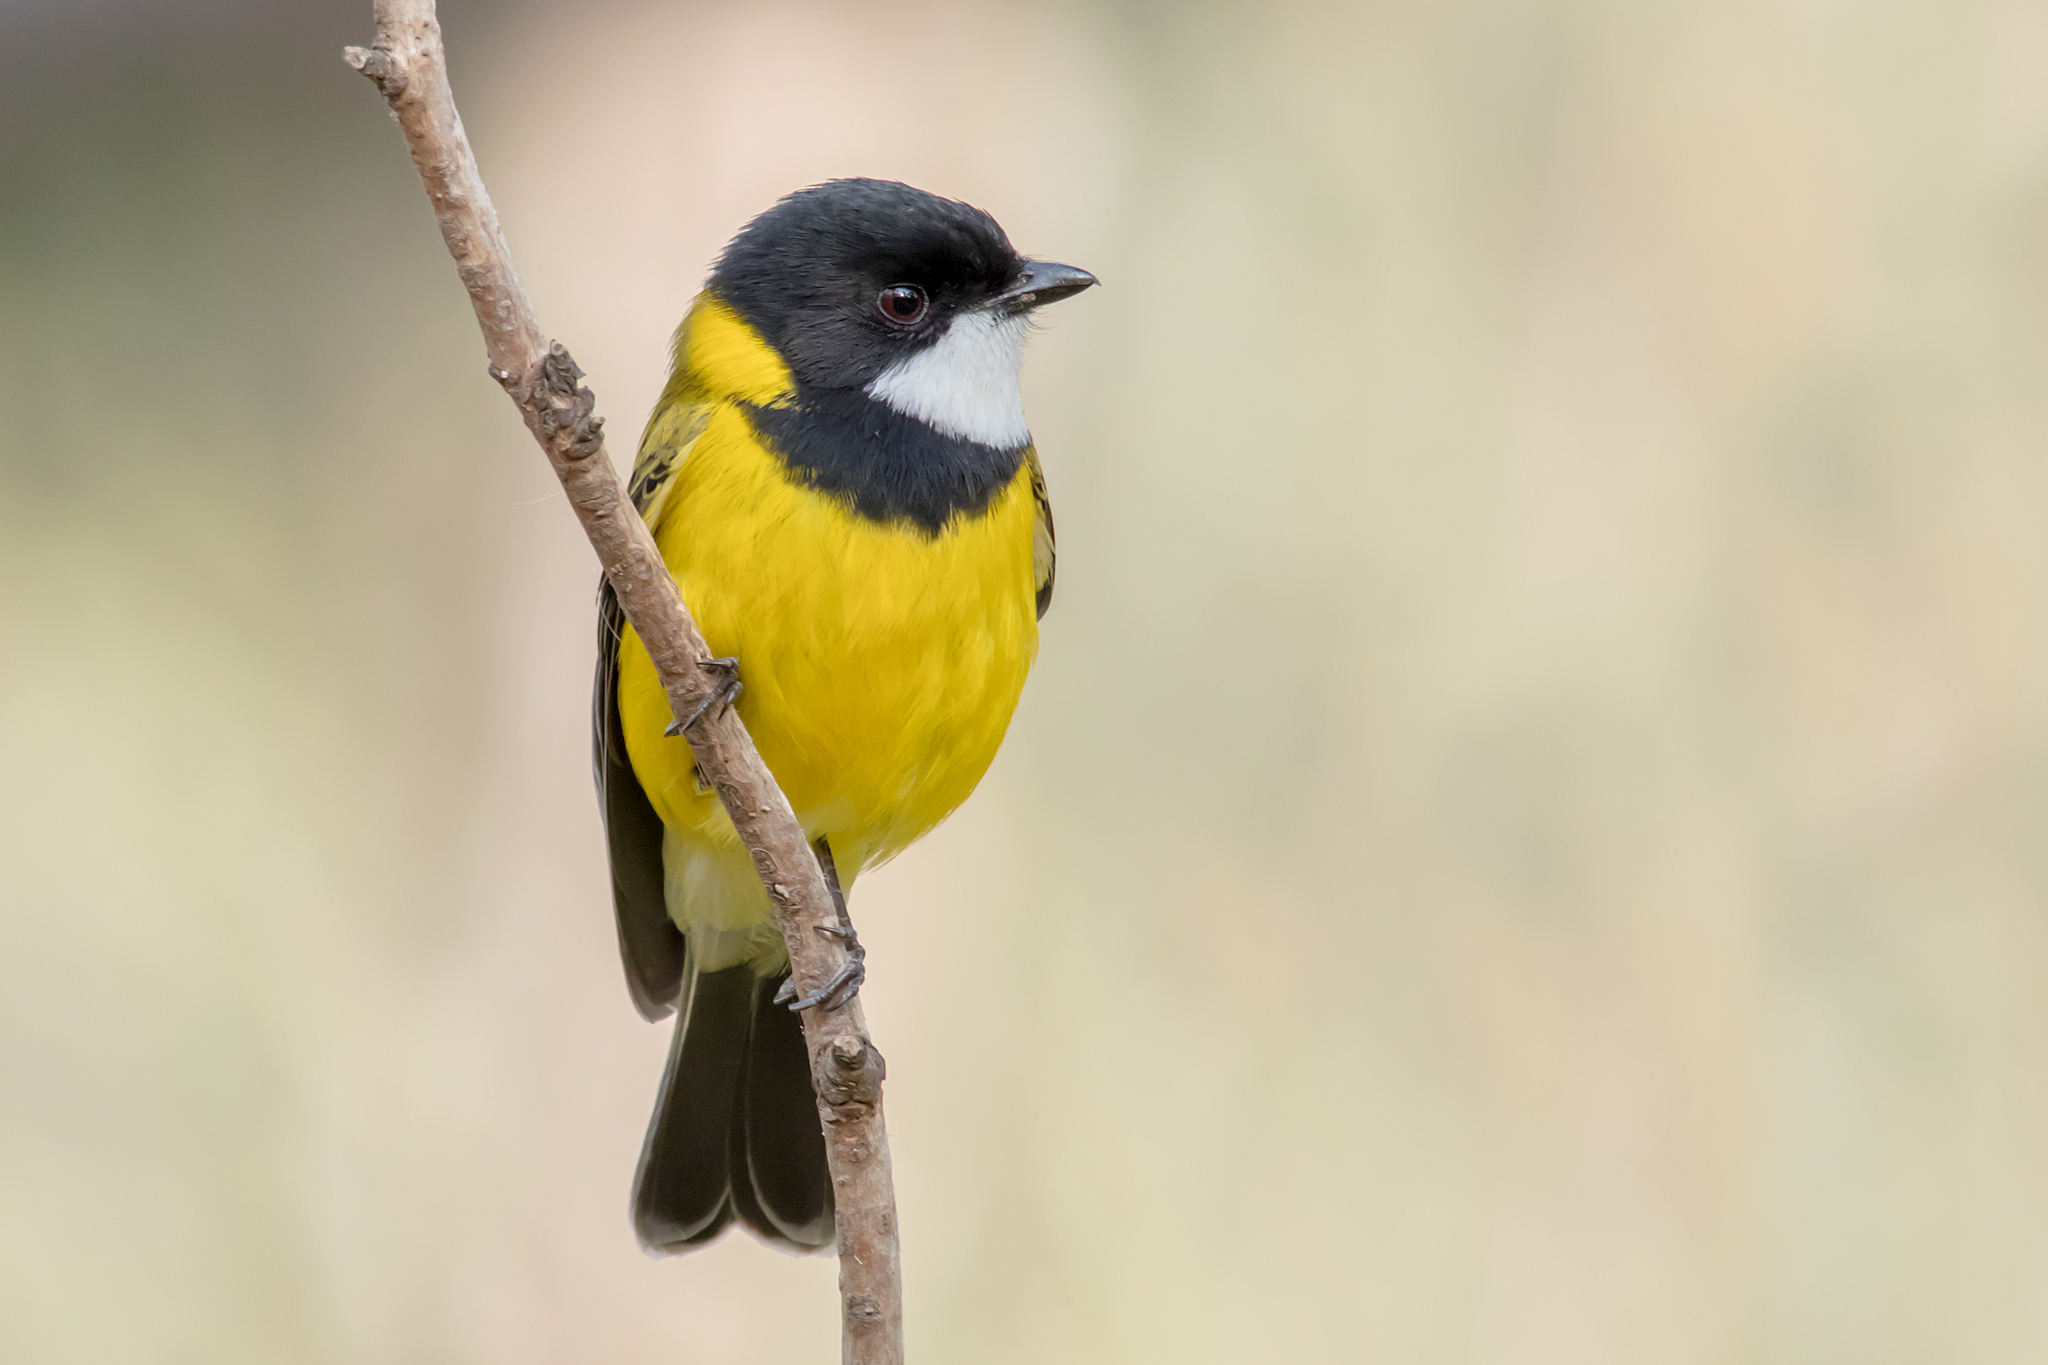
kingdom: Animalia
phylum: Chordata
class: Aves
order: Passeriformes
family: Pachycephalidae
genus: Pachycephala
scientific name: Pachycephala pectoralis
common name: Australian golden whistler
